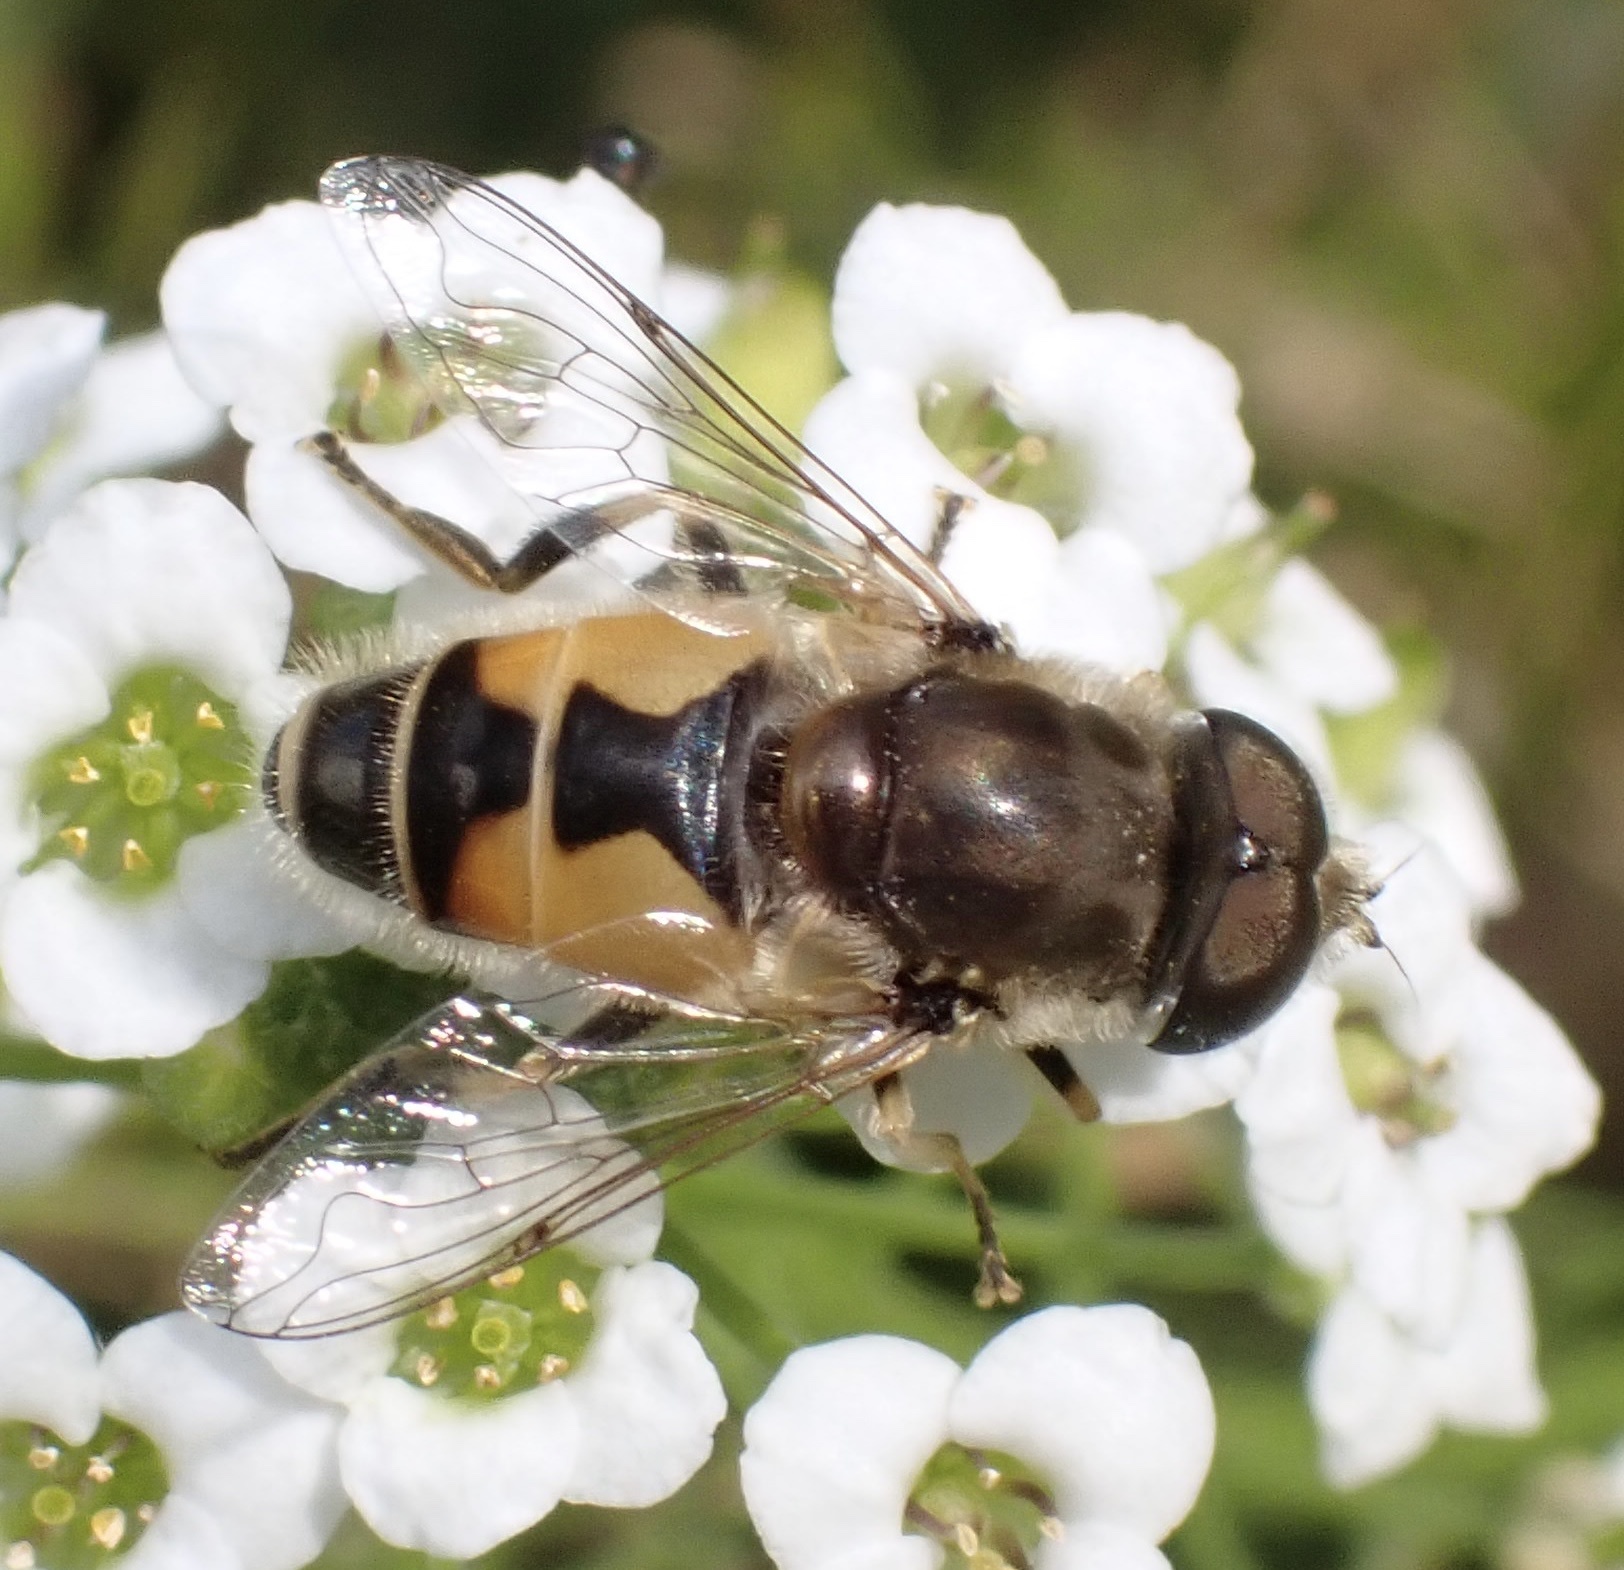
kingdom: Animalia
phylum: Arthropoda
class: Insecta
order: Diptera
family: Syrphidae
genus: Eristalis
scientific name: Eristalis arbustorum
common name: Hover fly
